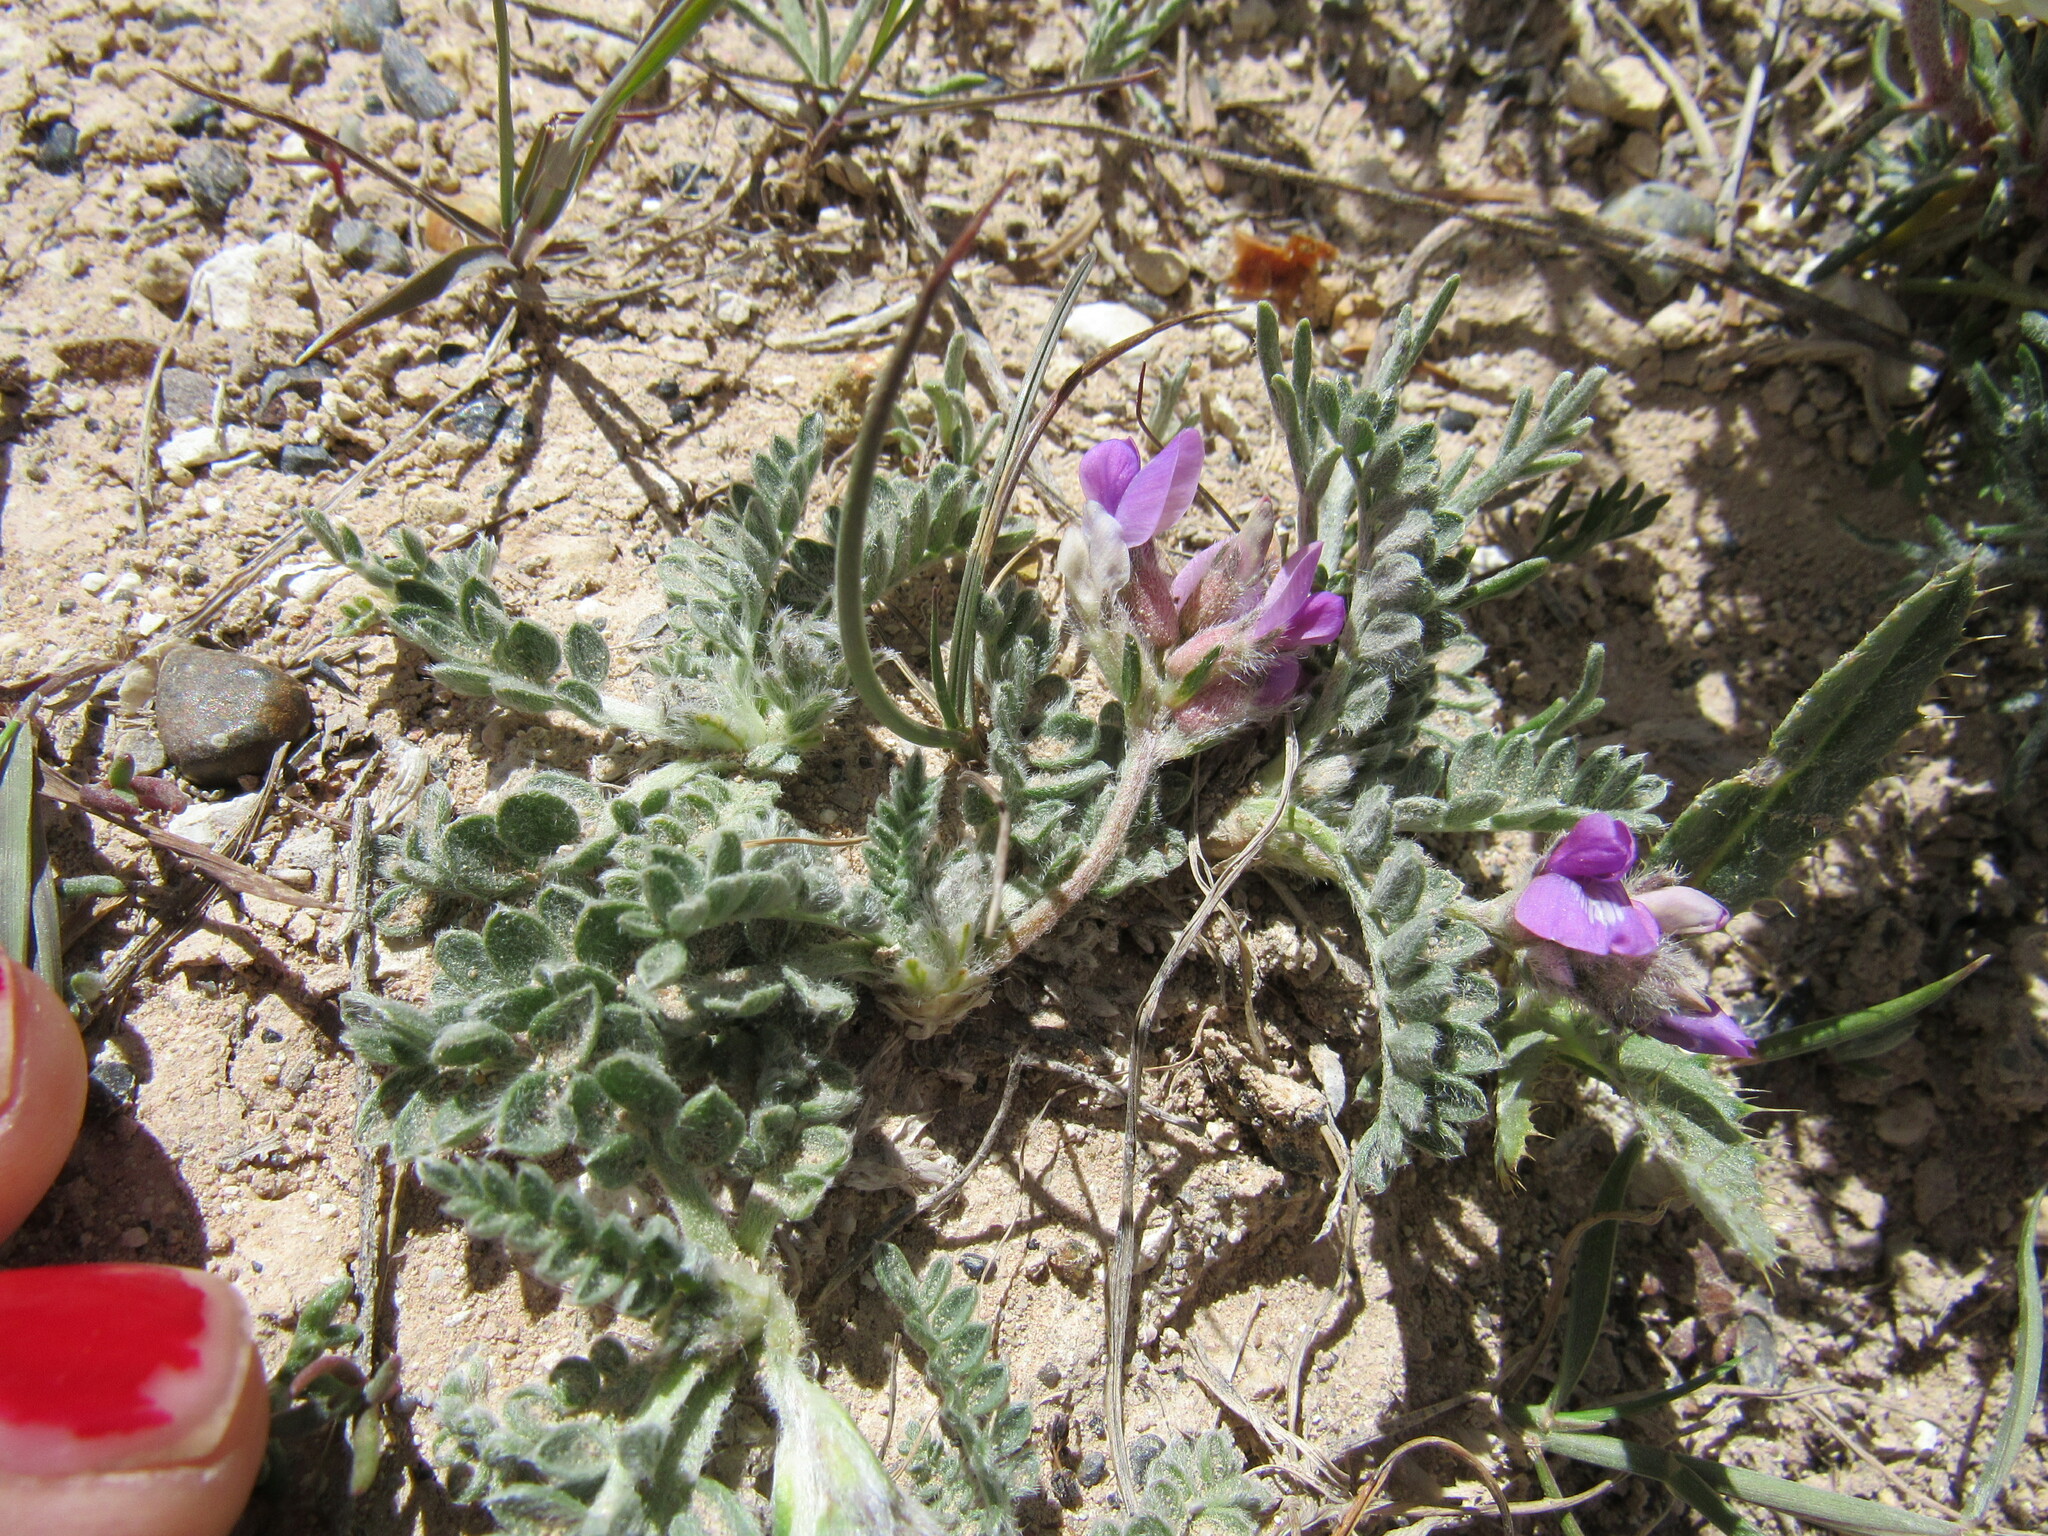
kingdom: Plantae
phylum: Tracheophyta
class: Magnoliopsida
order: Fabales
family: Fabaceae
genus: Oxytropis
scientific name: Oxytropis oreophila
